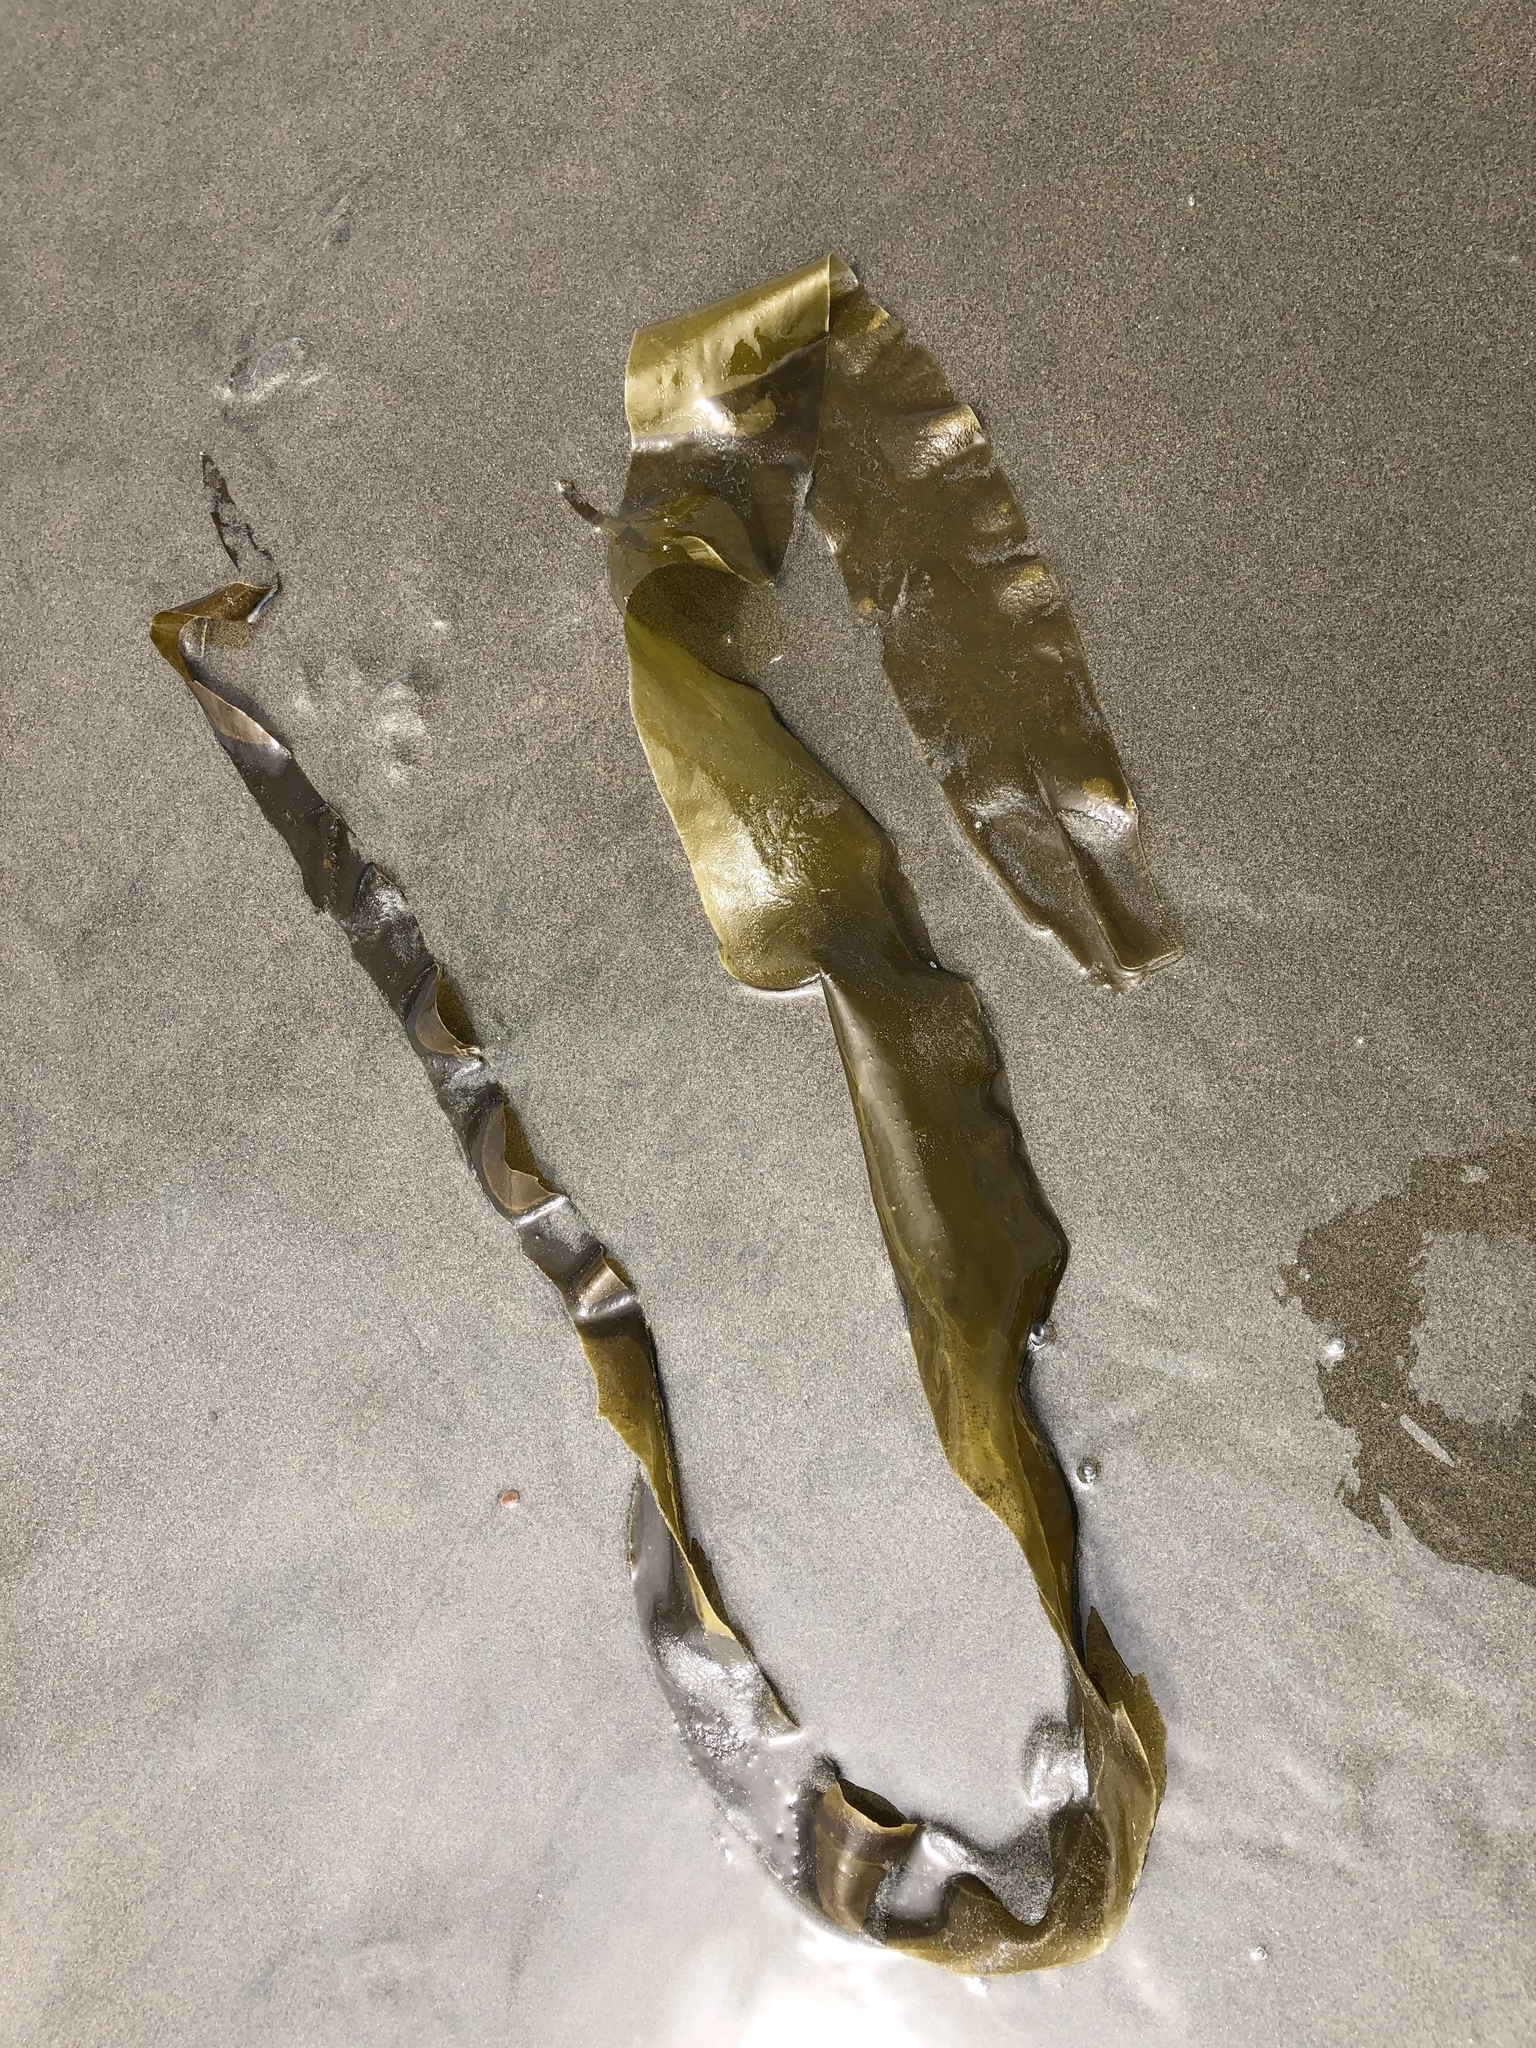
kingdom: Chromista
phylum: Ochrophyta
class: Phaeophyceae
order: Laminariales
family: Laminariaceae
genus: Nereocystis
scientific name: Nereocystis luetkeana
